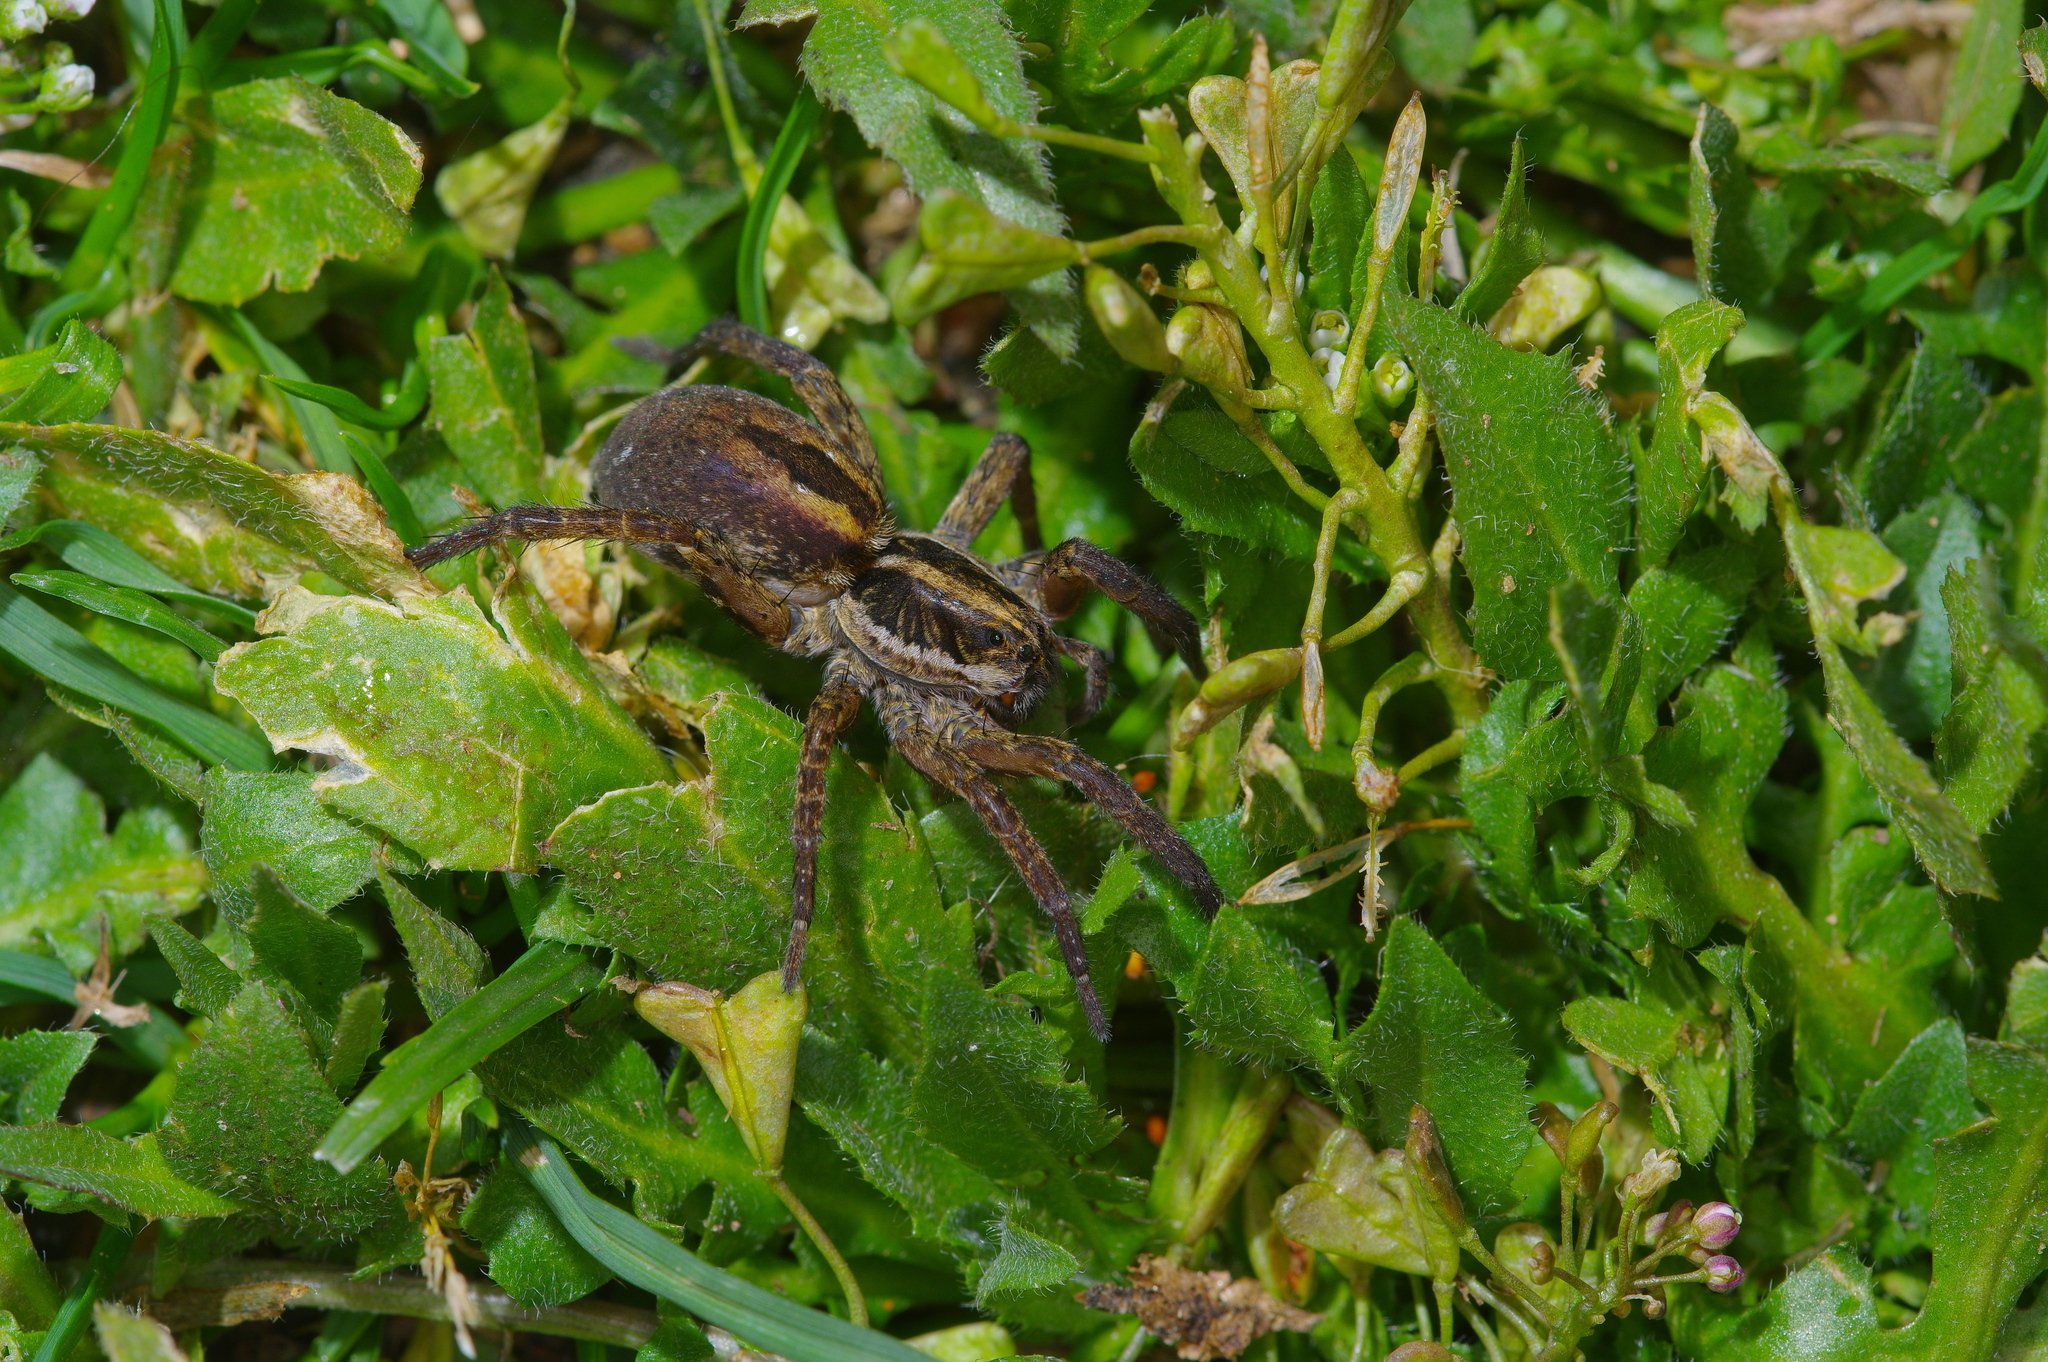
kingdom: Animalia
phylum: Arthropoda
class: Arachnida
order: Araneae
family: Lycosidae
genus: Tigrosa
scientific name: Tigrosa annexa
